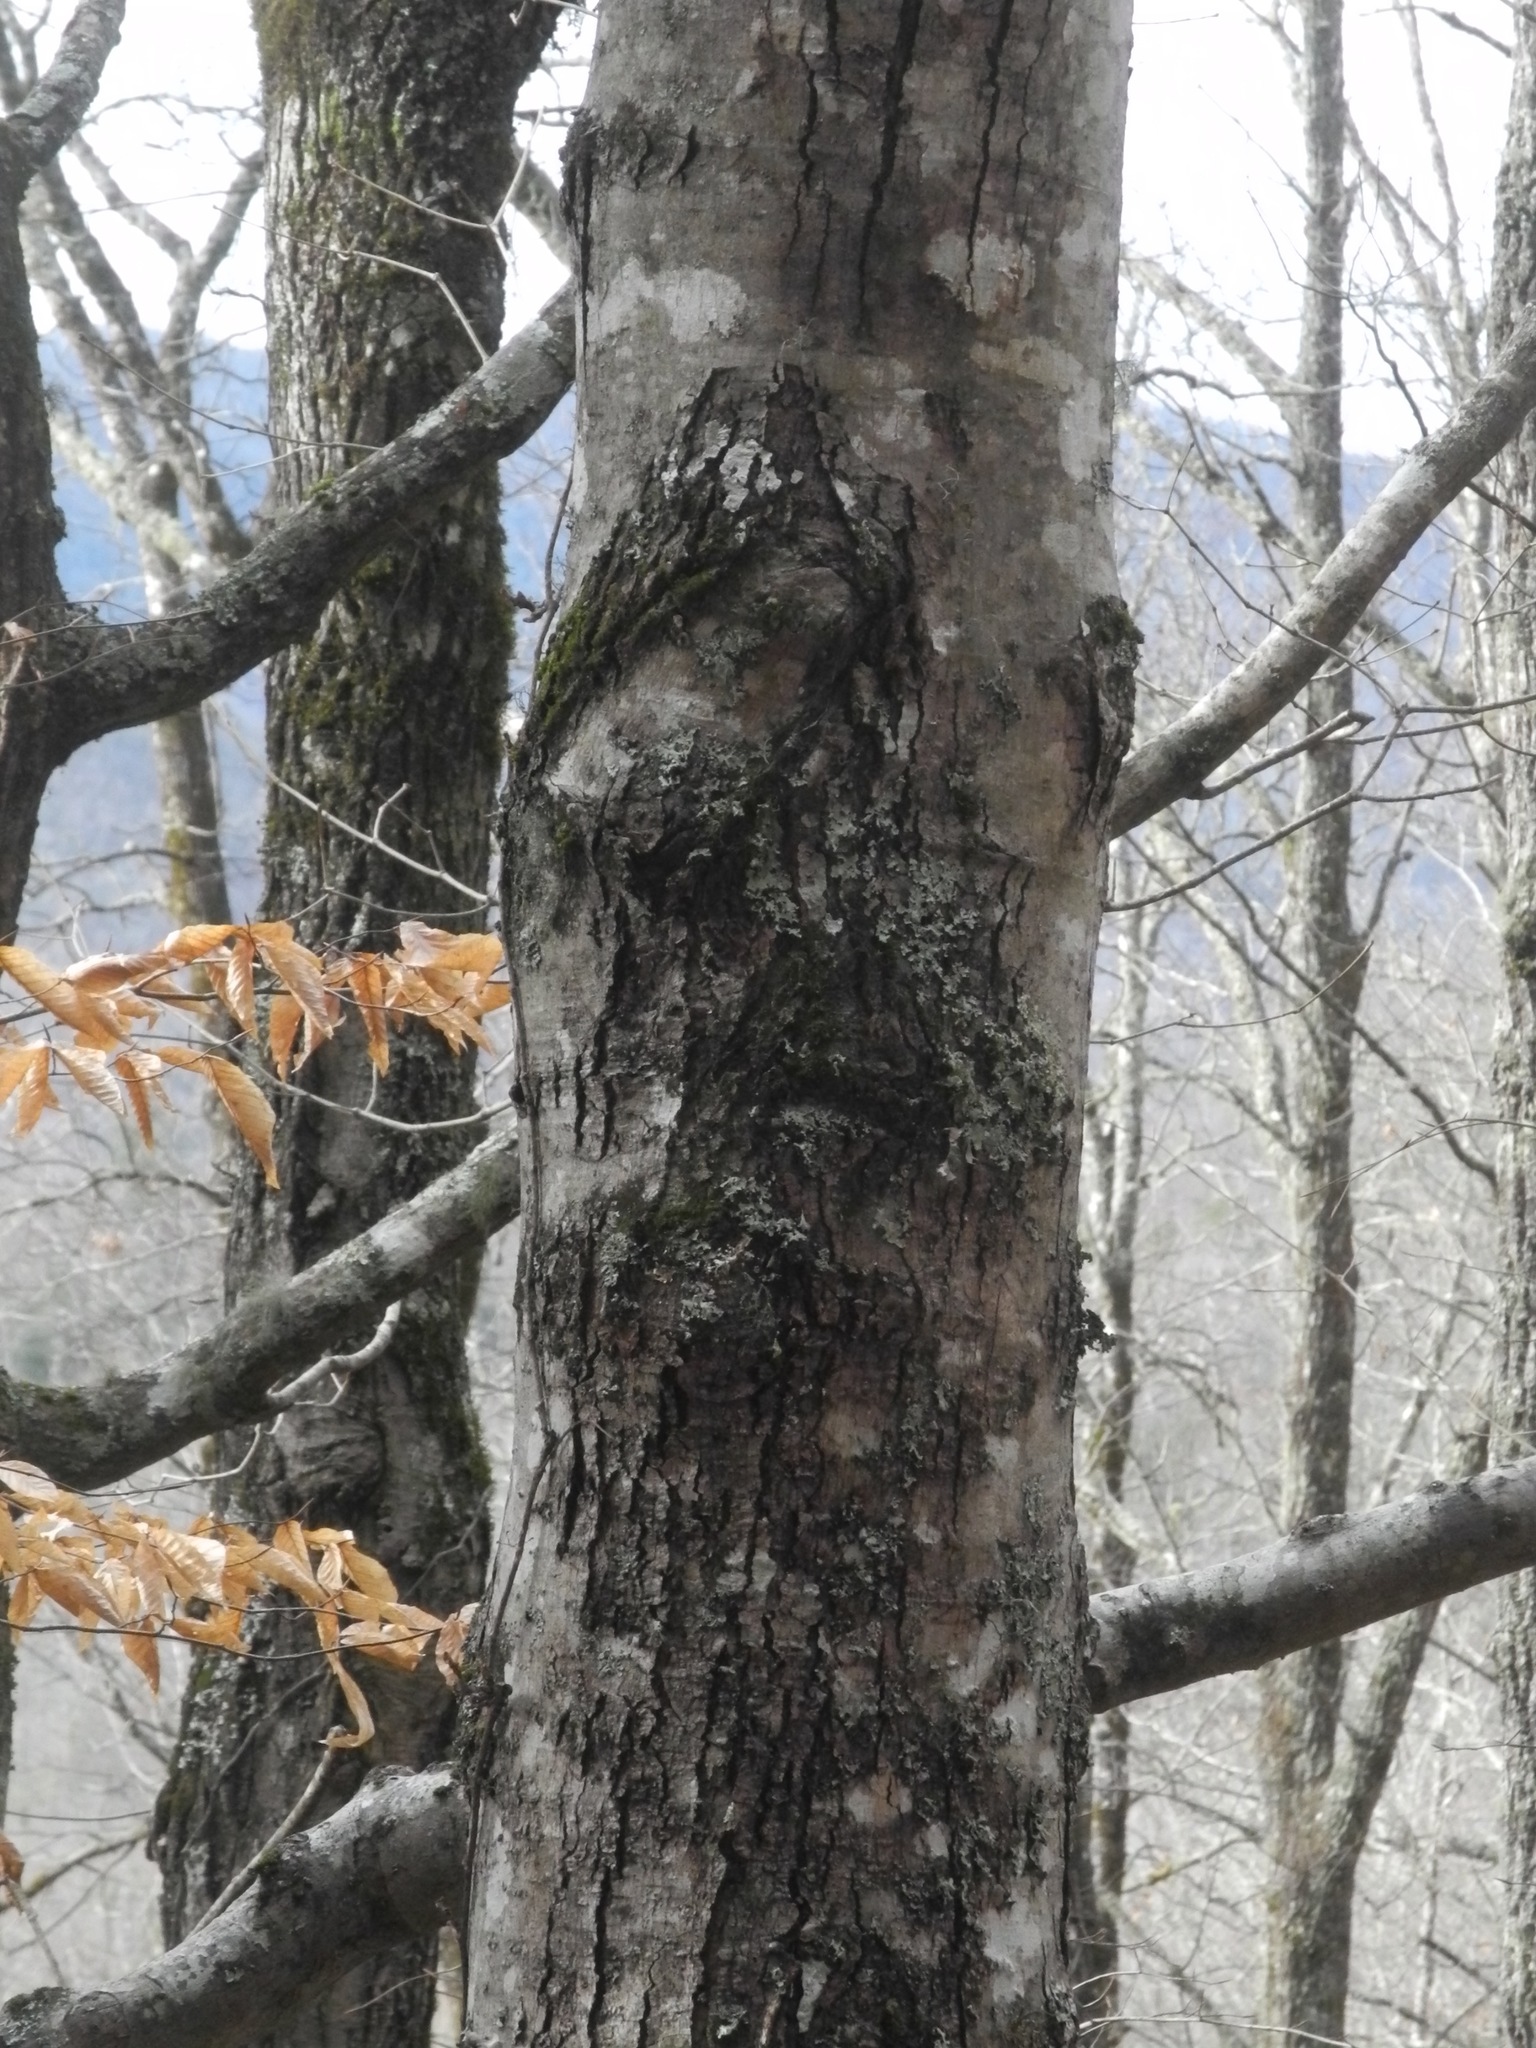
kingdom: Plantae
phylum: Tracheophyta
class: Magnoliopsida
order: Sapindales
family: Sapindaceae
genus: Acer
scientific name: Acer freemanii
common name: Freeman maple
